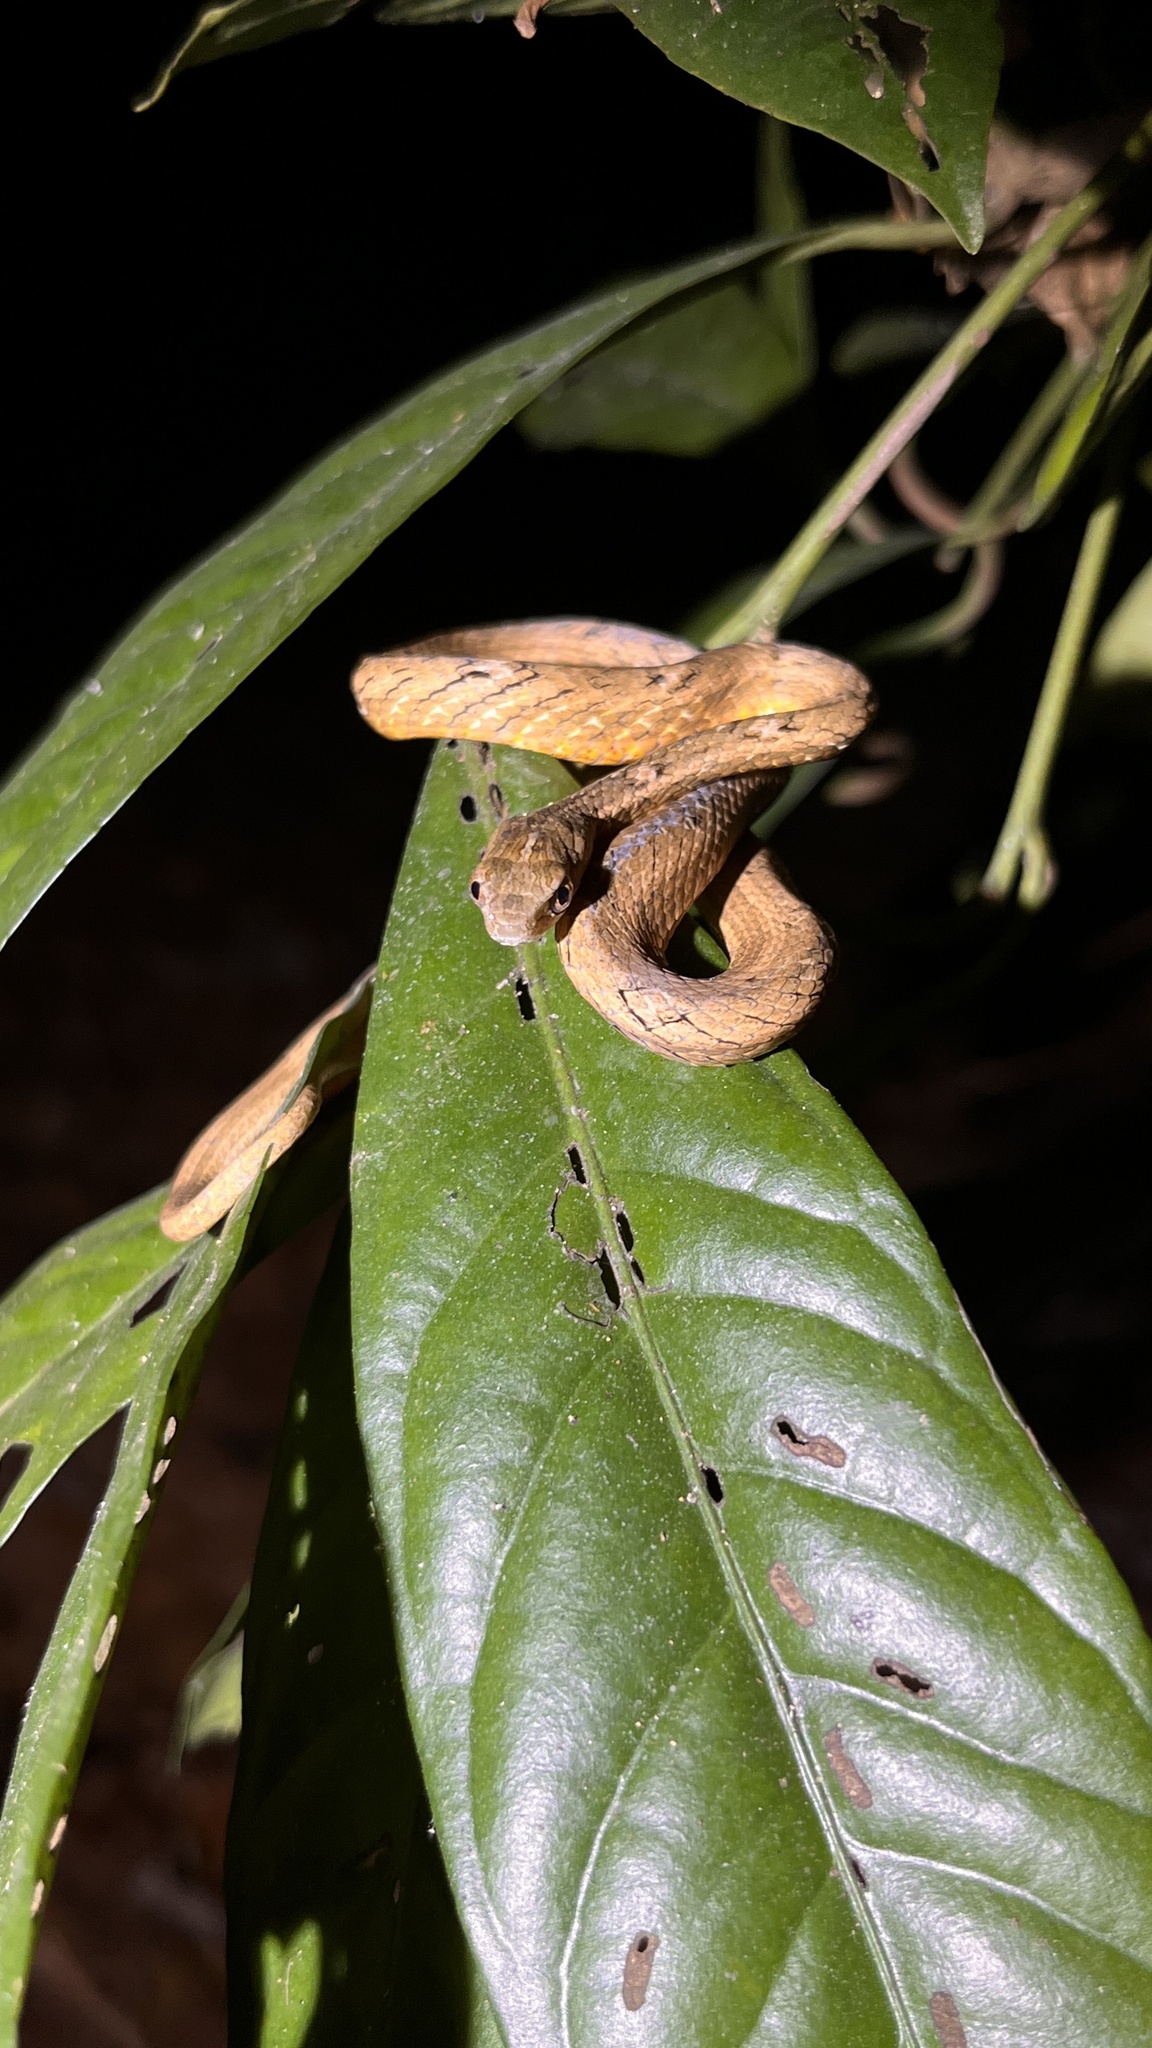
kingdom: Animalia
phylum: Chordata
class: Squamata
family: Pseudaspididae
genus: Psammodynastes
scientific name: Psammodynastes pulverulentus
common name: Common mock viper
